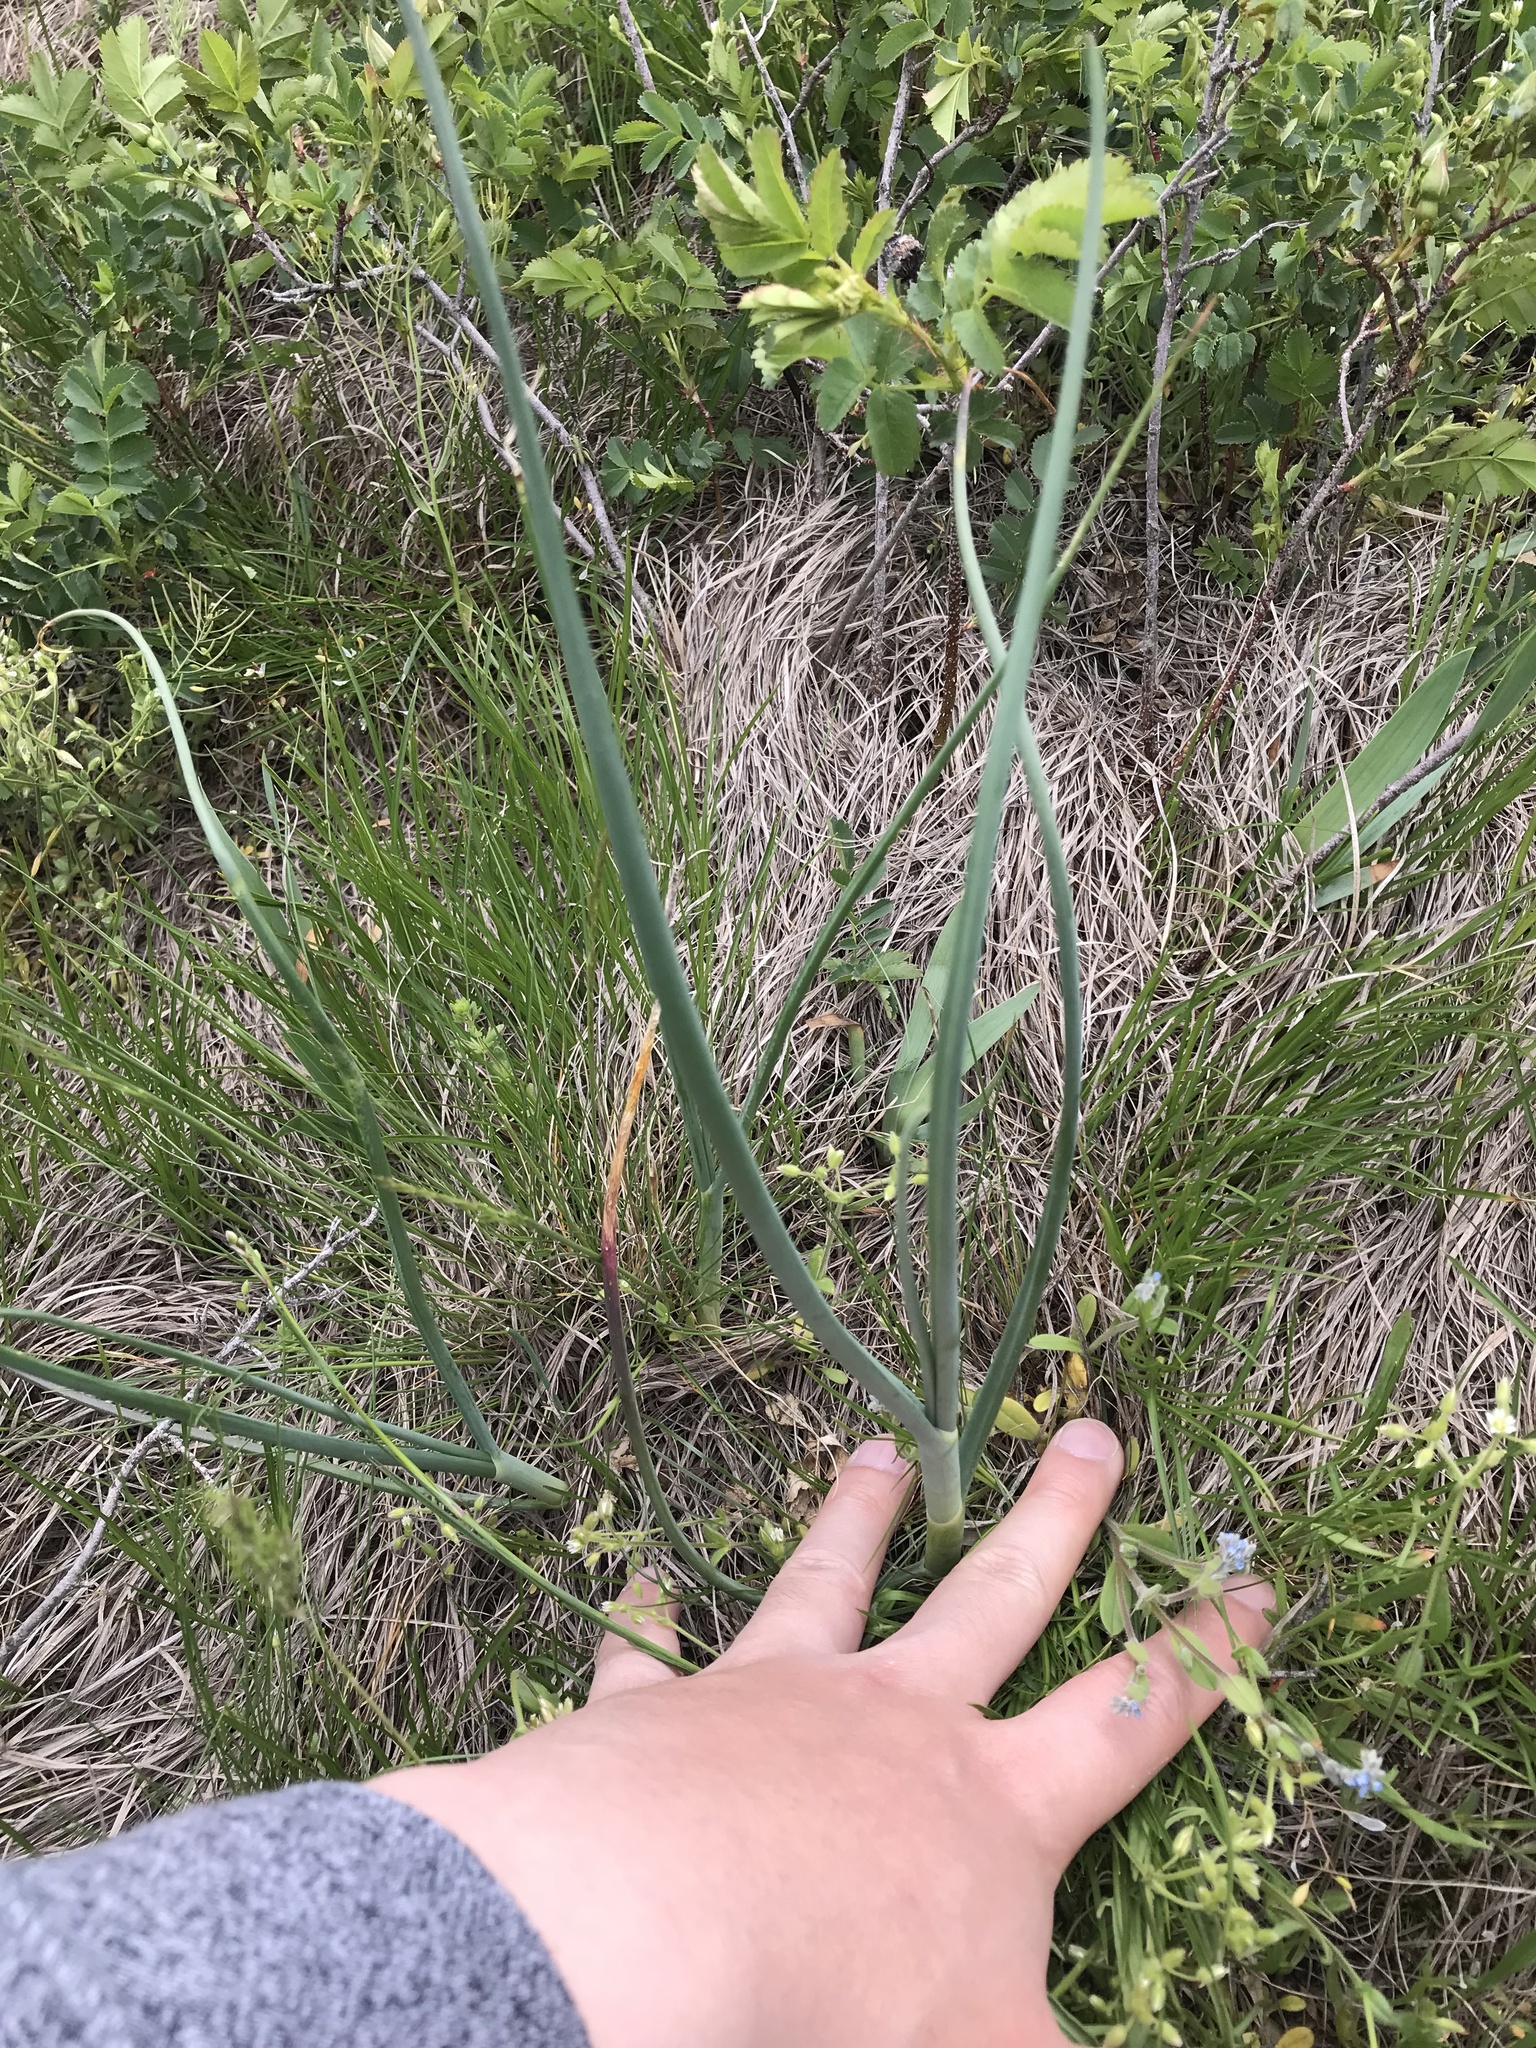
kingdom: Plantae
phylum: Tracheophyta
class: Liliopsida
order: Asparagales
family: Amaryllidaceae
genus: Allium
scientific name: Allium schoenoprasum
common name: Chives
